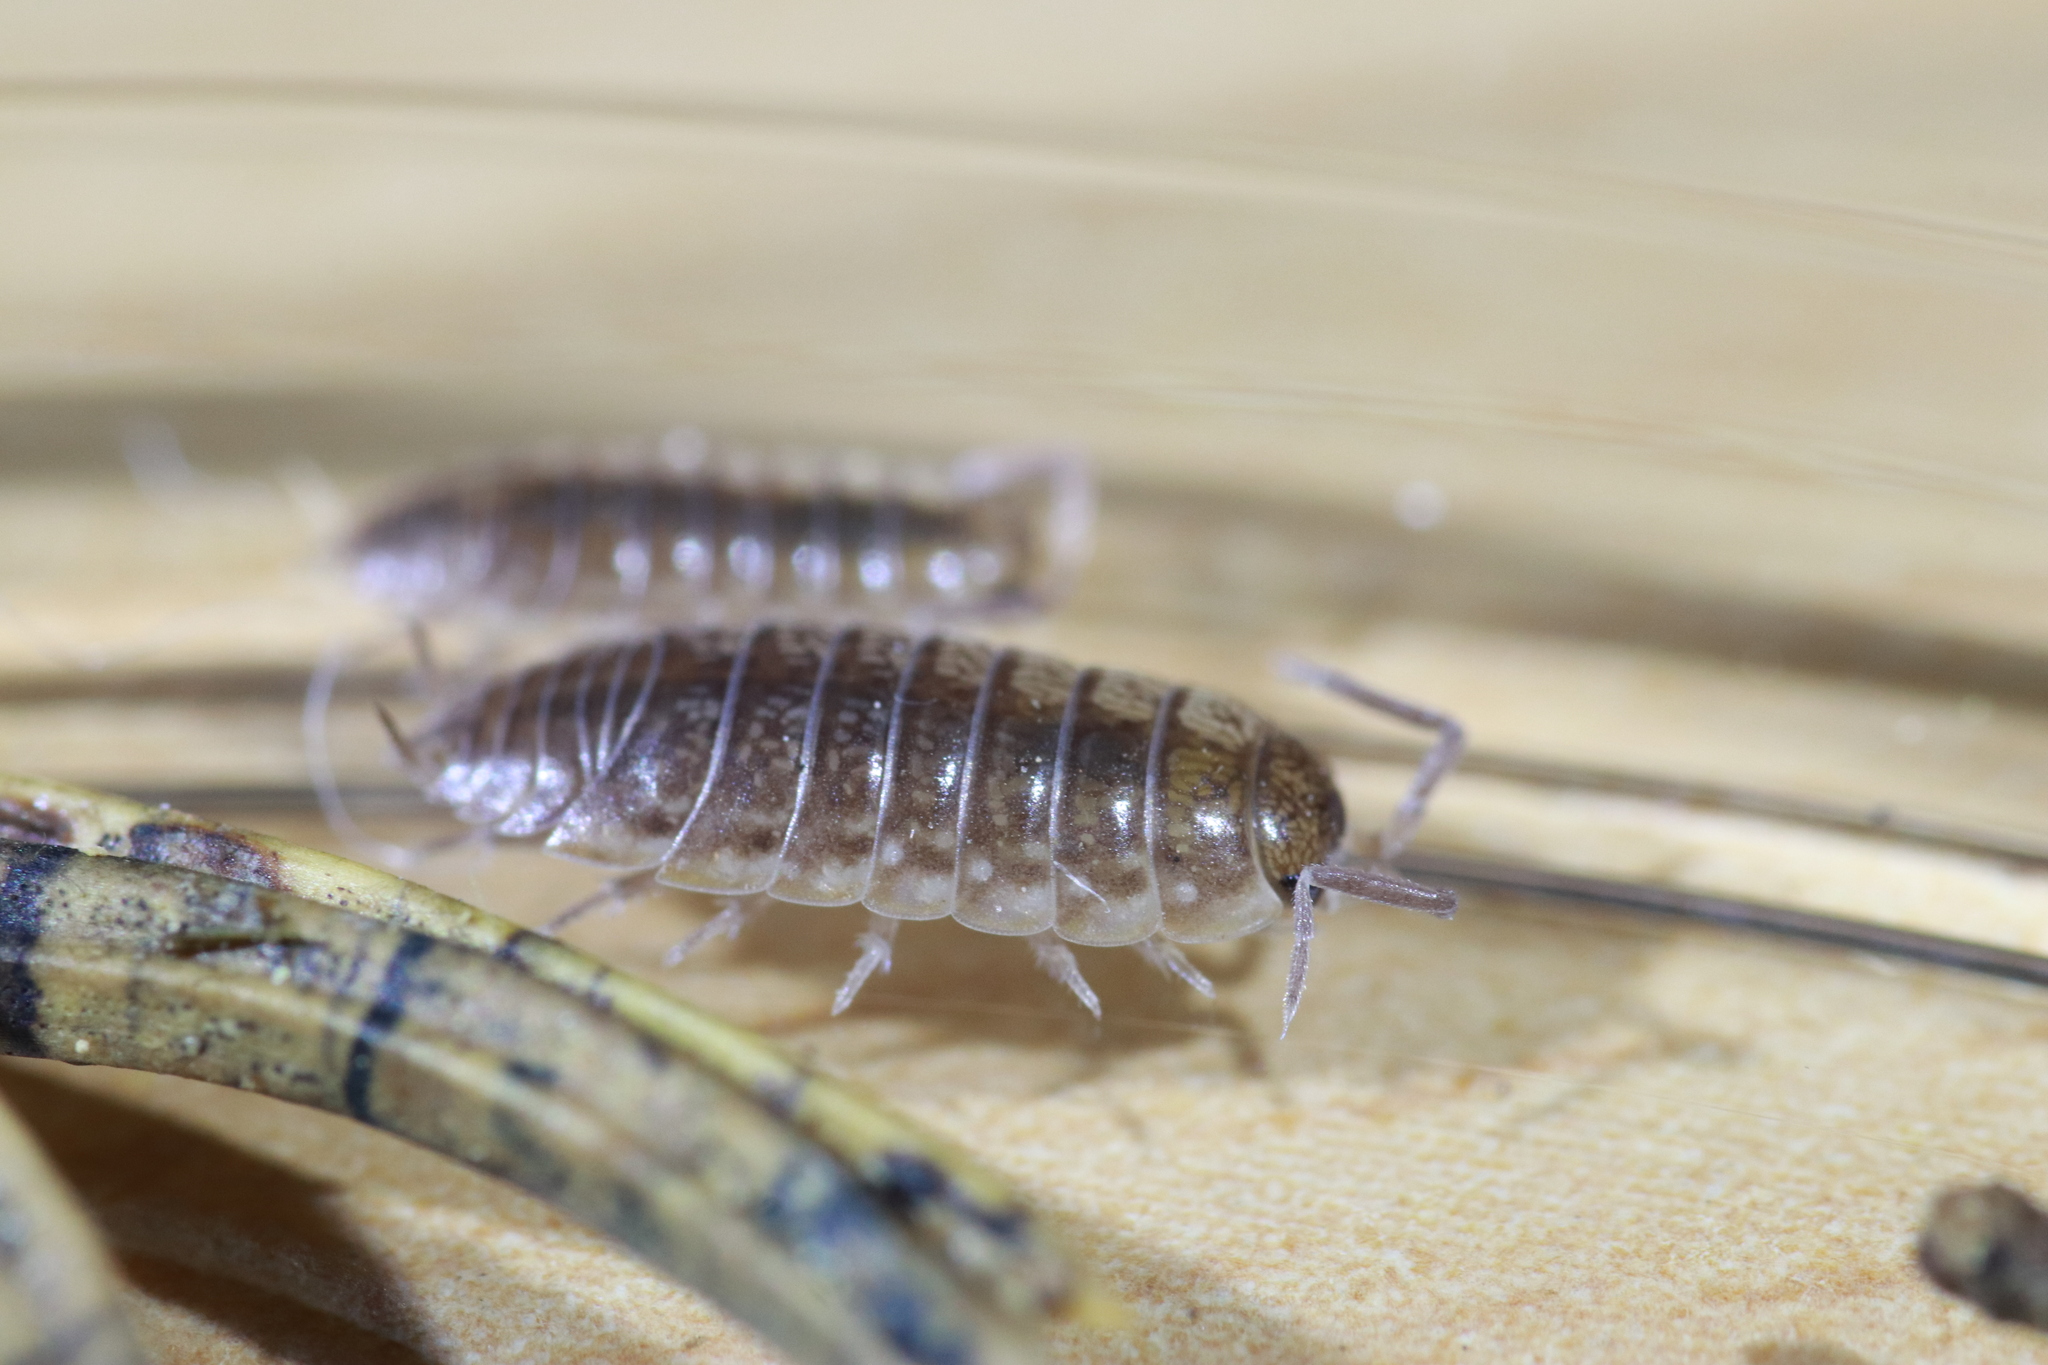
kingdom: Animalia
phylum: Arthropoda
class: Malacostraca
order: Isopoda
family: Porcellionidae
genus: Porcellio
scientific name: Porcellio gallicus
